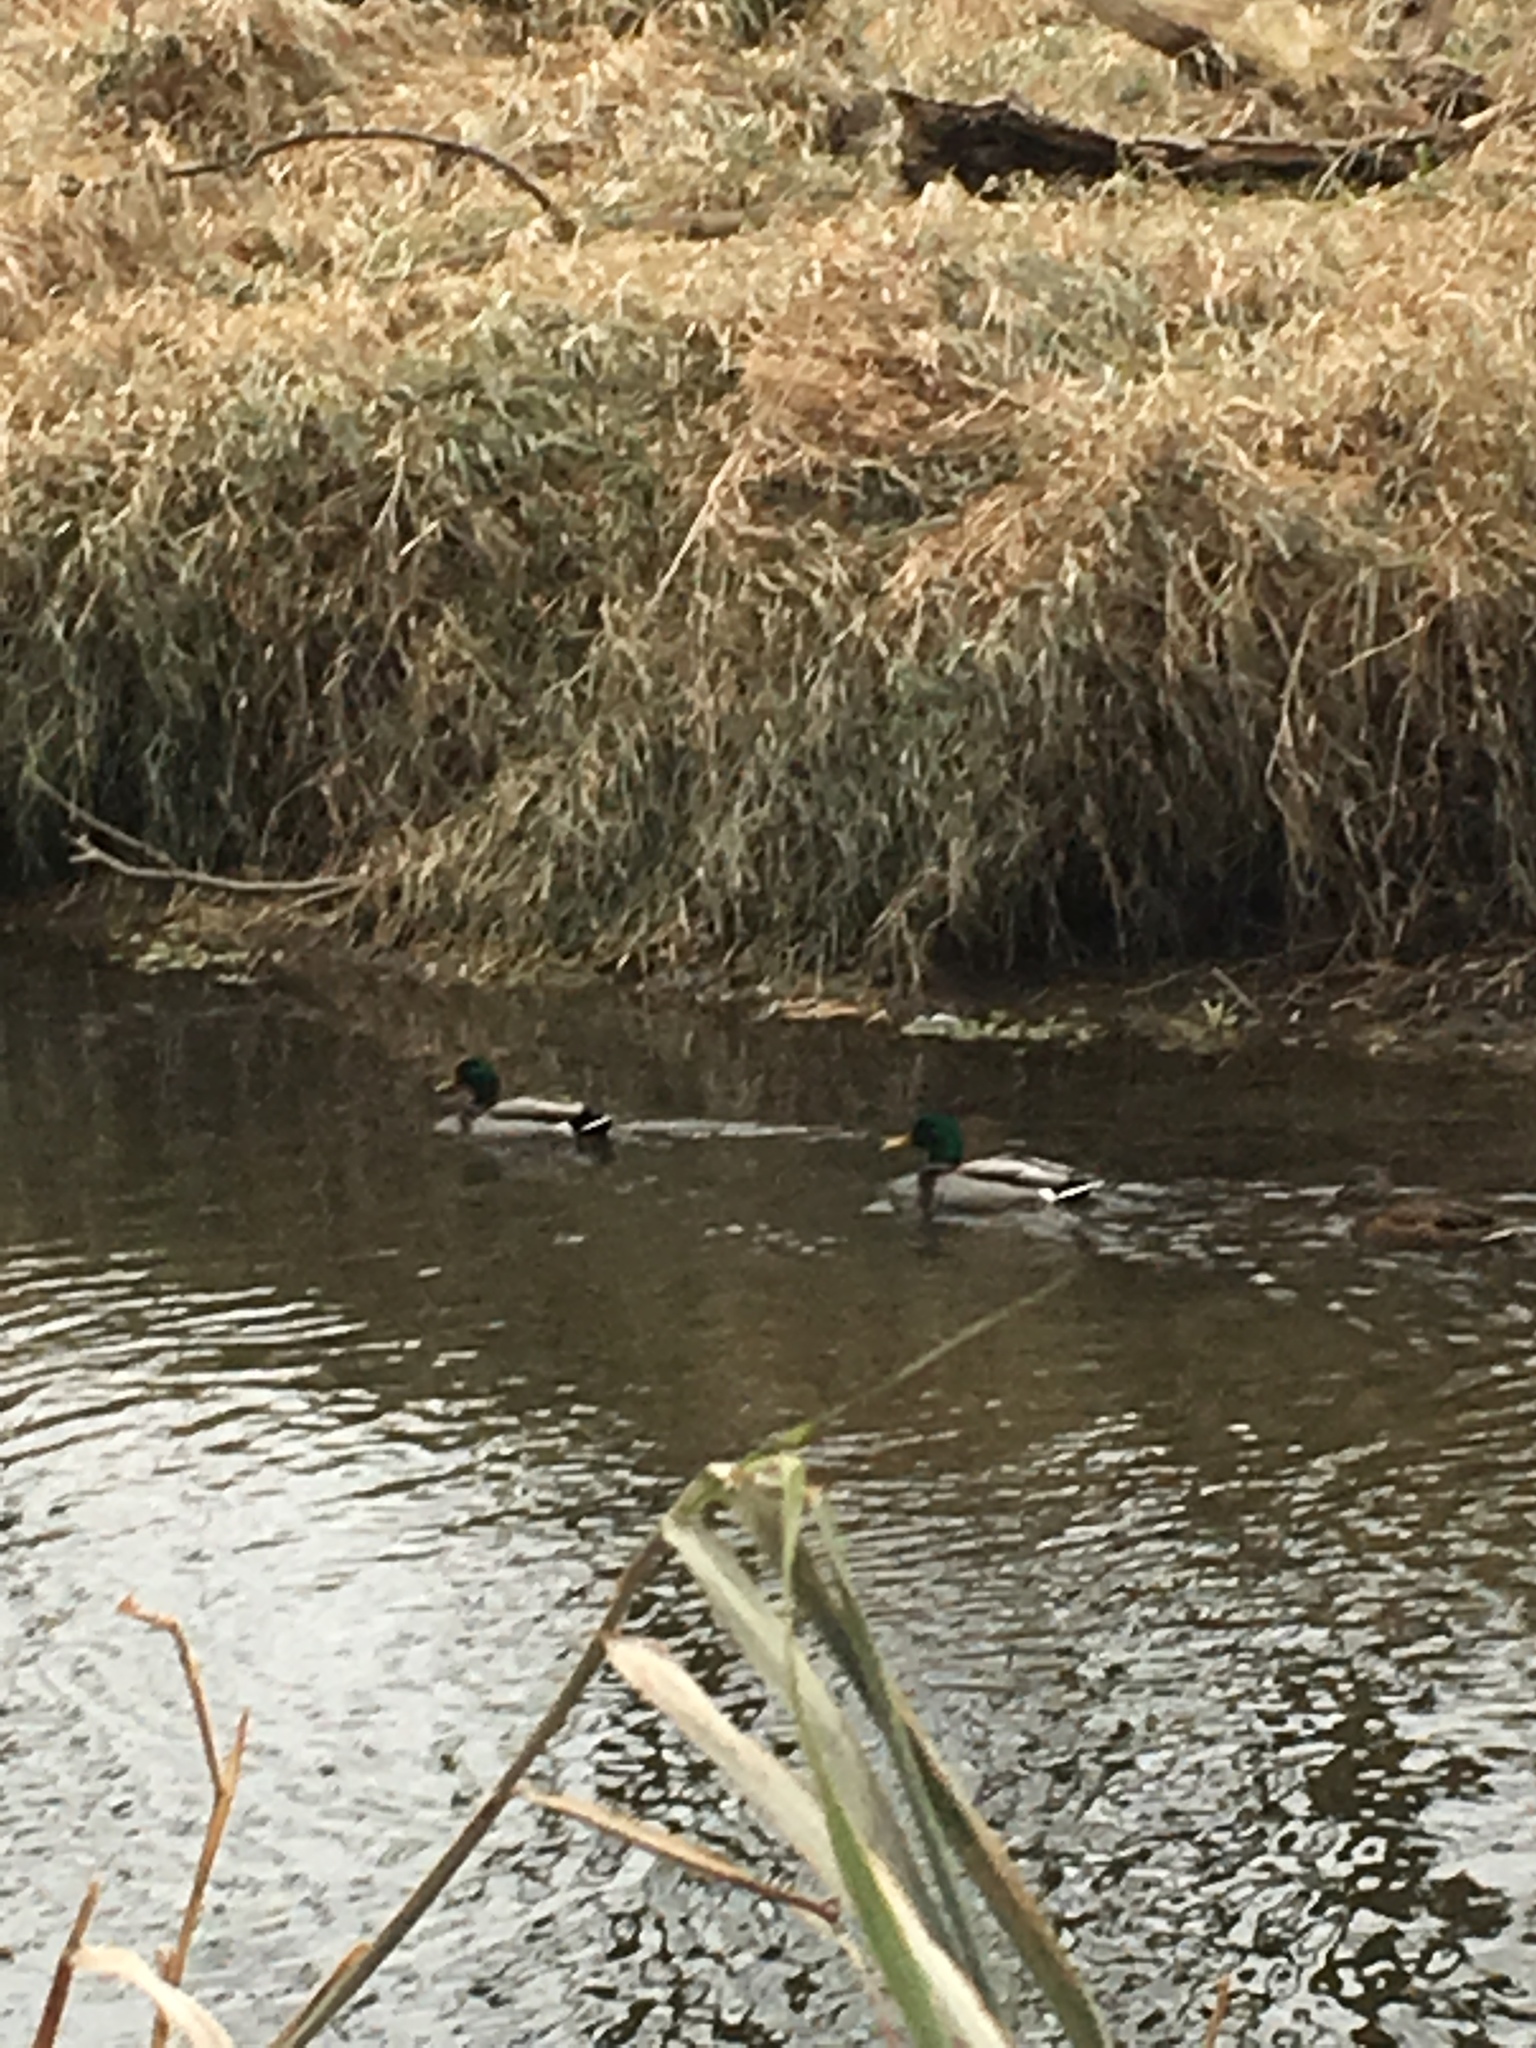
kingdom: Animalia
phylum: Chordata
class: Aves
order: Anseriformes
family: Anatidae
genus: Anas
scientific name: Anas platyrhynchos
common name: Mallard
